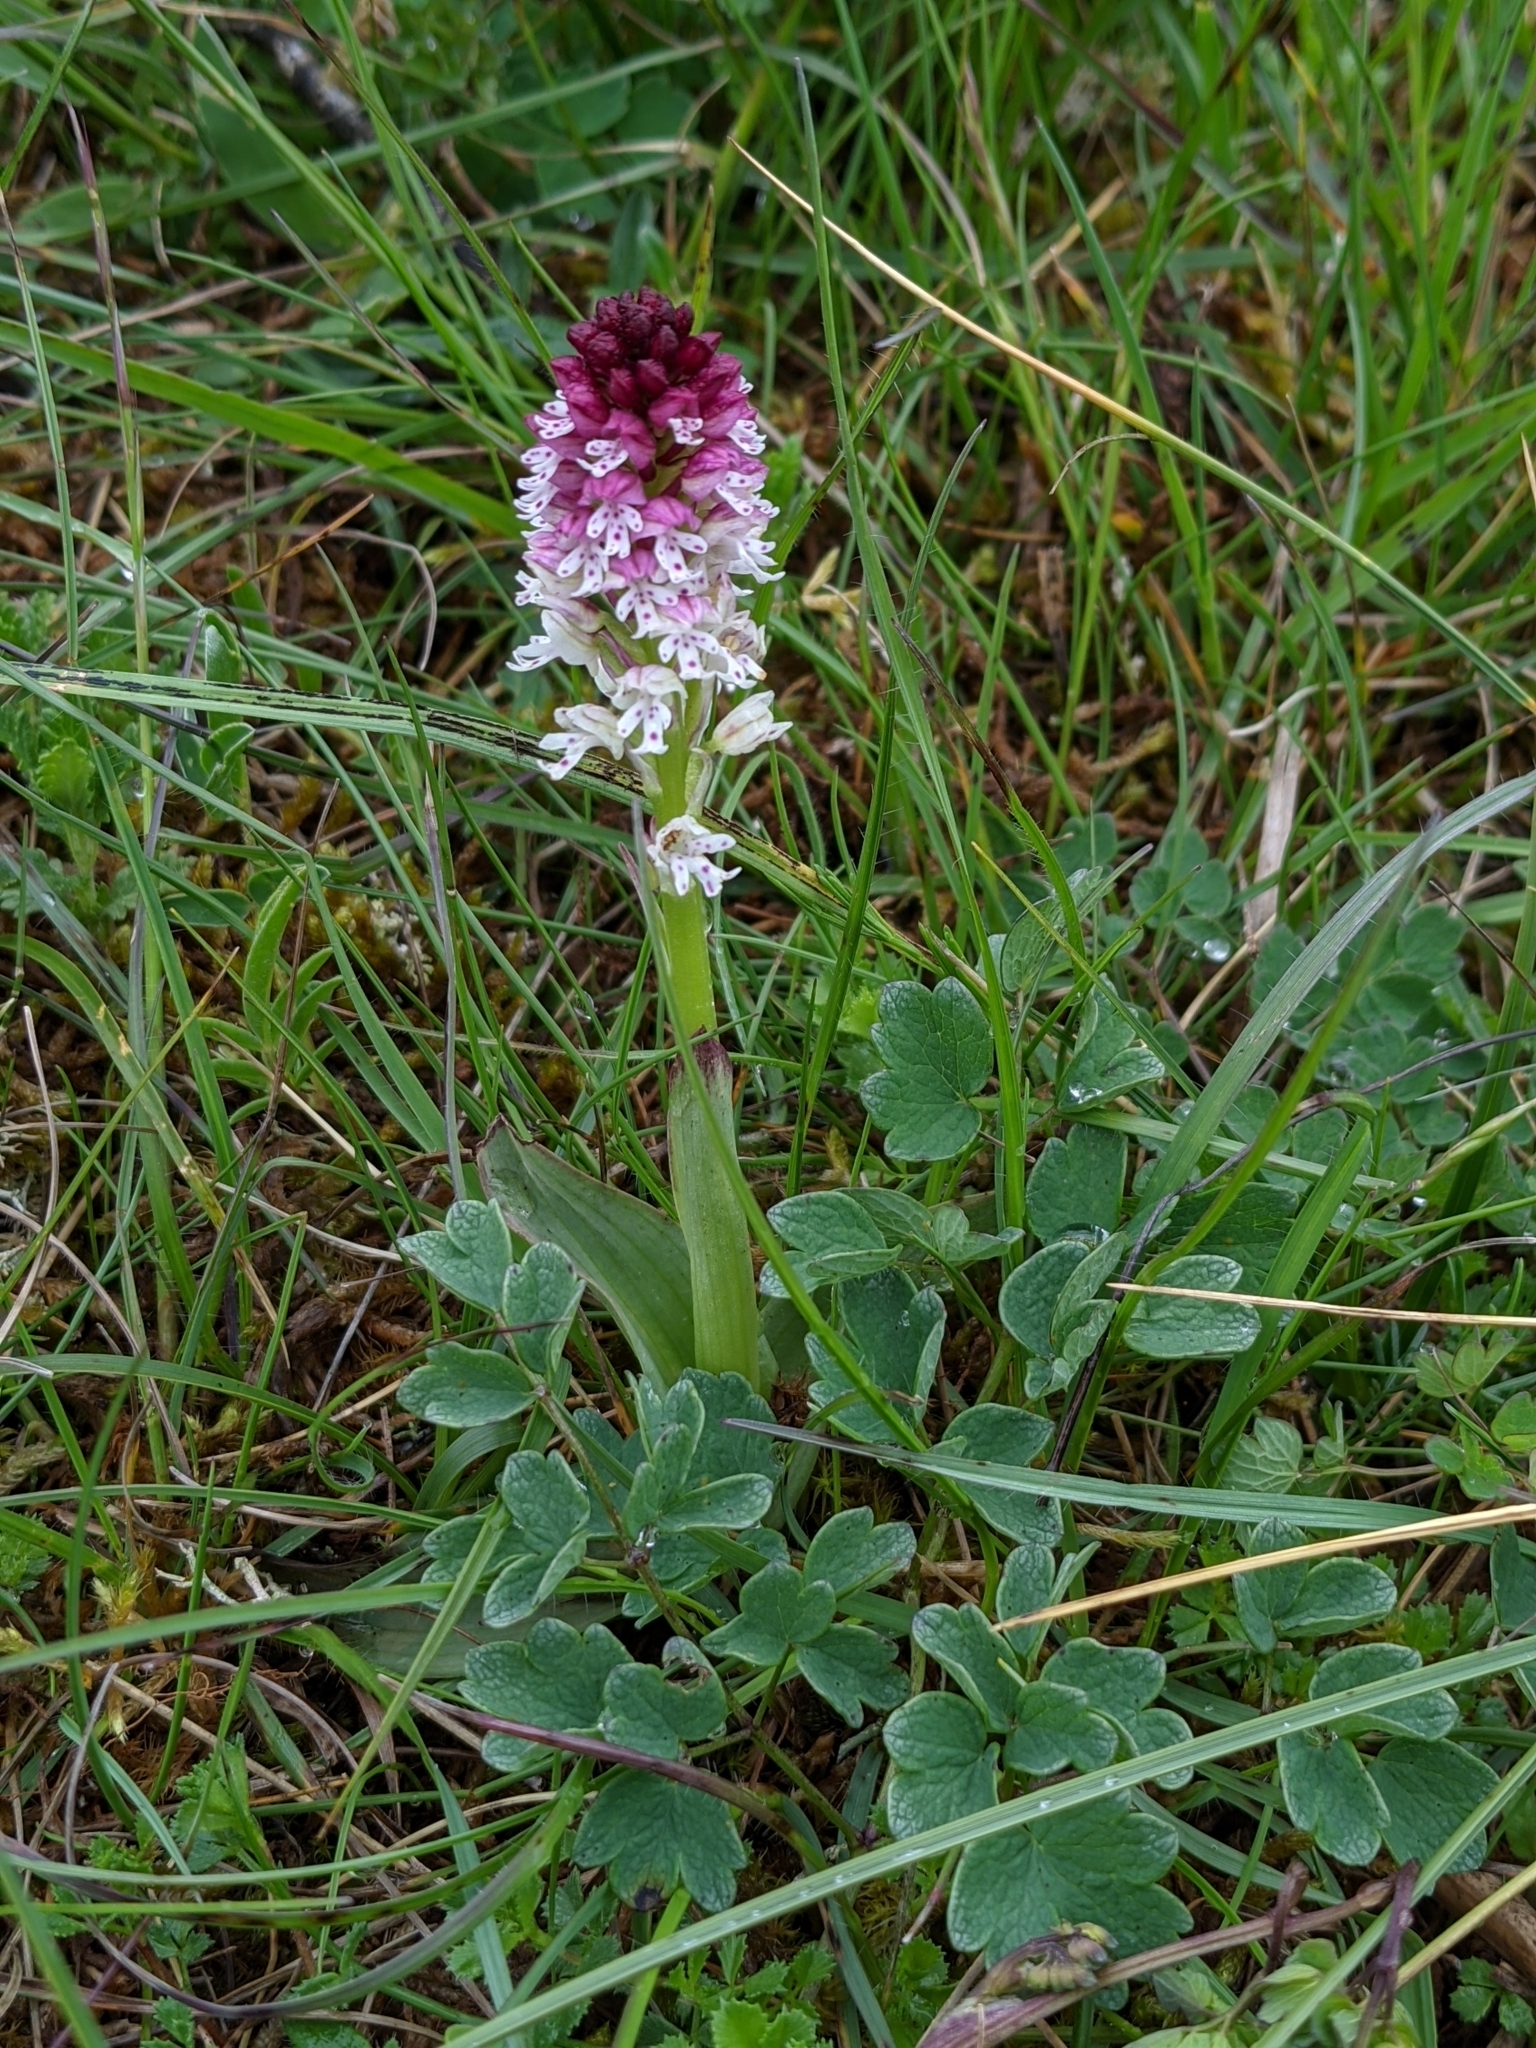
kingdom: Plantae
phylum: Tracheophyta
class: Liliopsida
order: Asparagales
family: Orchidaceae
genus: Neotinea
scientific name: Neotinea ustulata
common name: Burnt orchid
